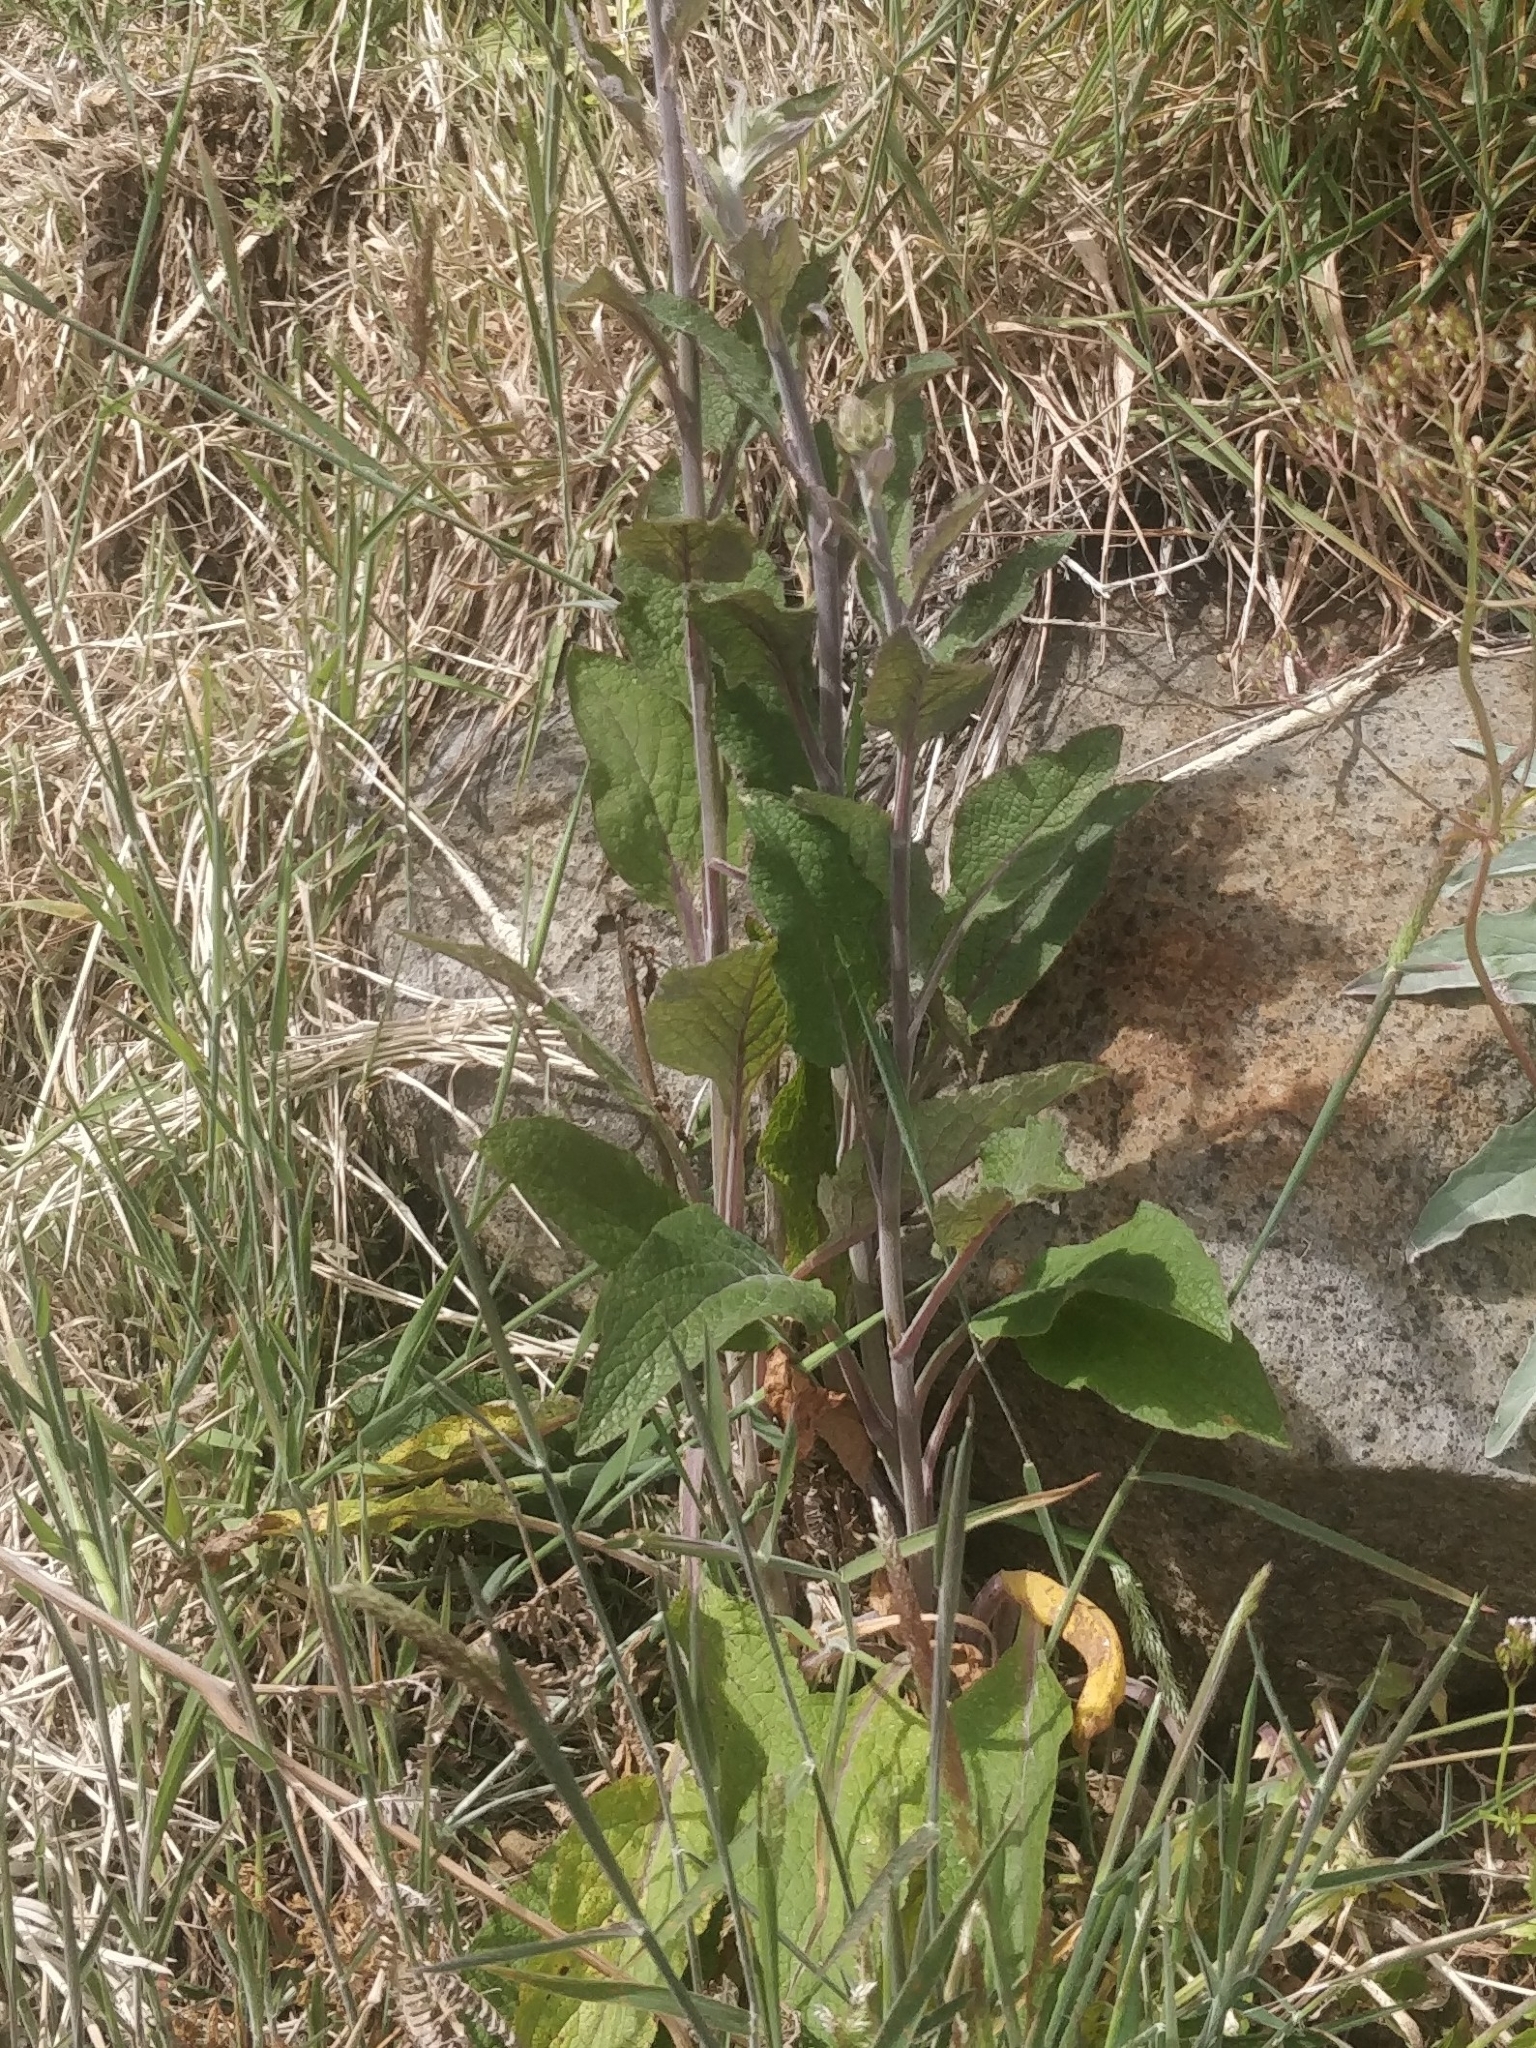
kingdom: Plantae
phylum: Tracheophyta
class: Magnoliopsida
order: Lamiales
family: Plantaginaceae
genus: Digitalis
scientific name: Digitalis purpurea
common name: Foxglove
